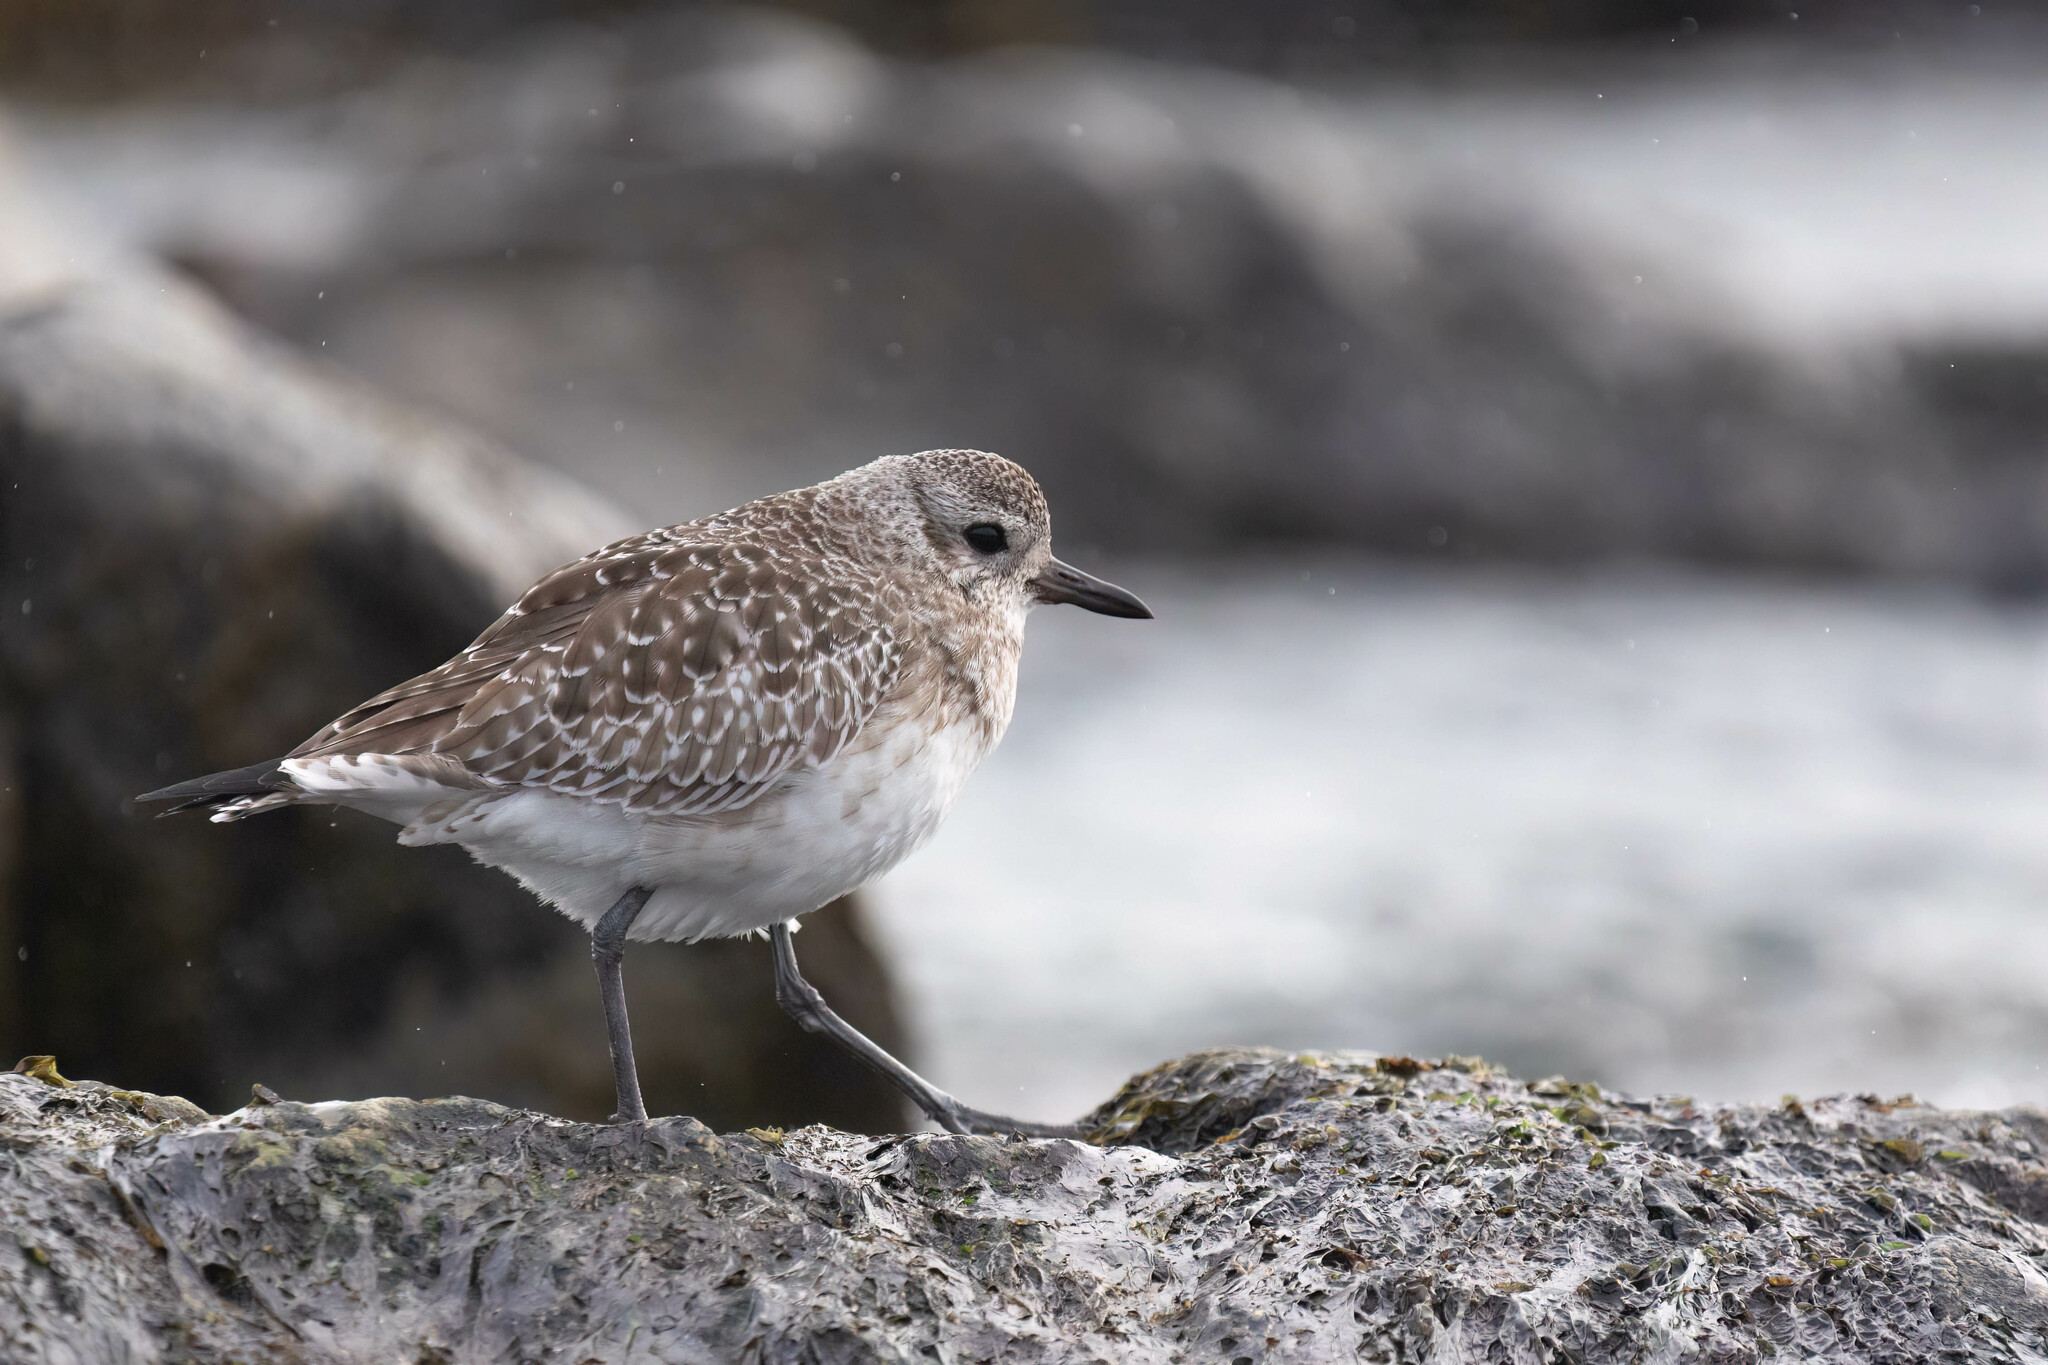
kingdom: Animalia
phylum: Chordata
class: Aves
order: Charadriiformes
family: Charadriidae
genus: Pluvialis
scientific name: Pluvialis squatarola
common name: Grey plover
